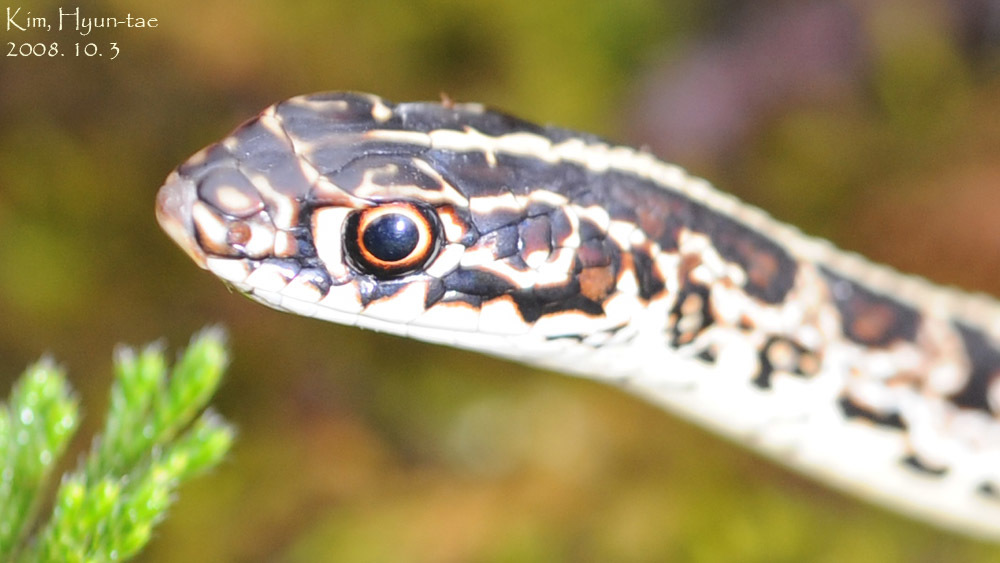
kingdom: Animalia
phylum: Chordata
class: Squamata
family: Colubridae
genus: Orientocoluber
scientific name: Orientocoluber spinalis
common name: Slender racer
